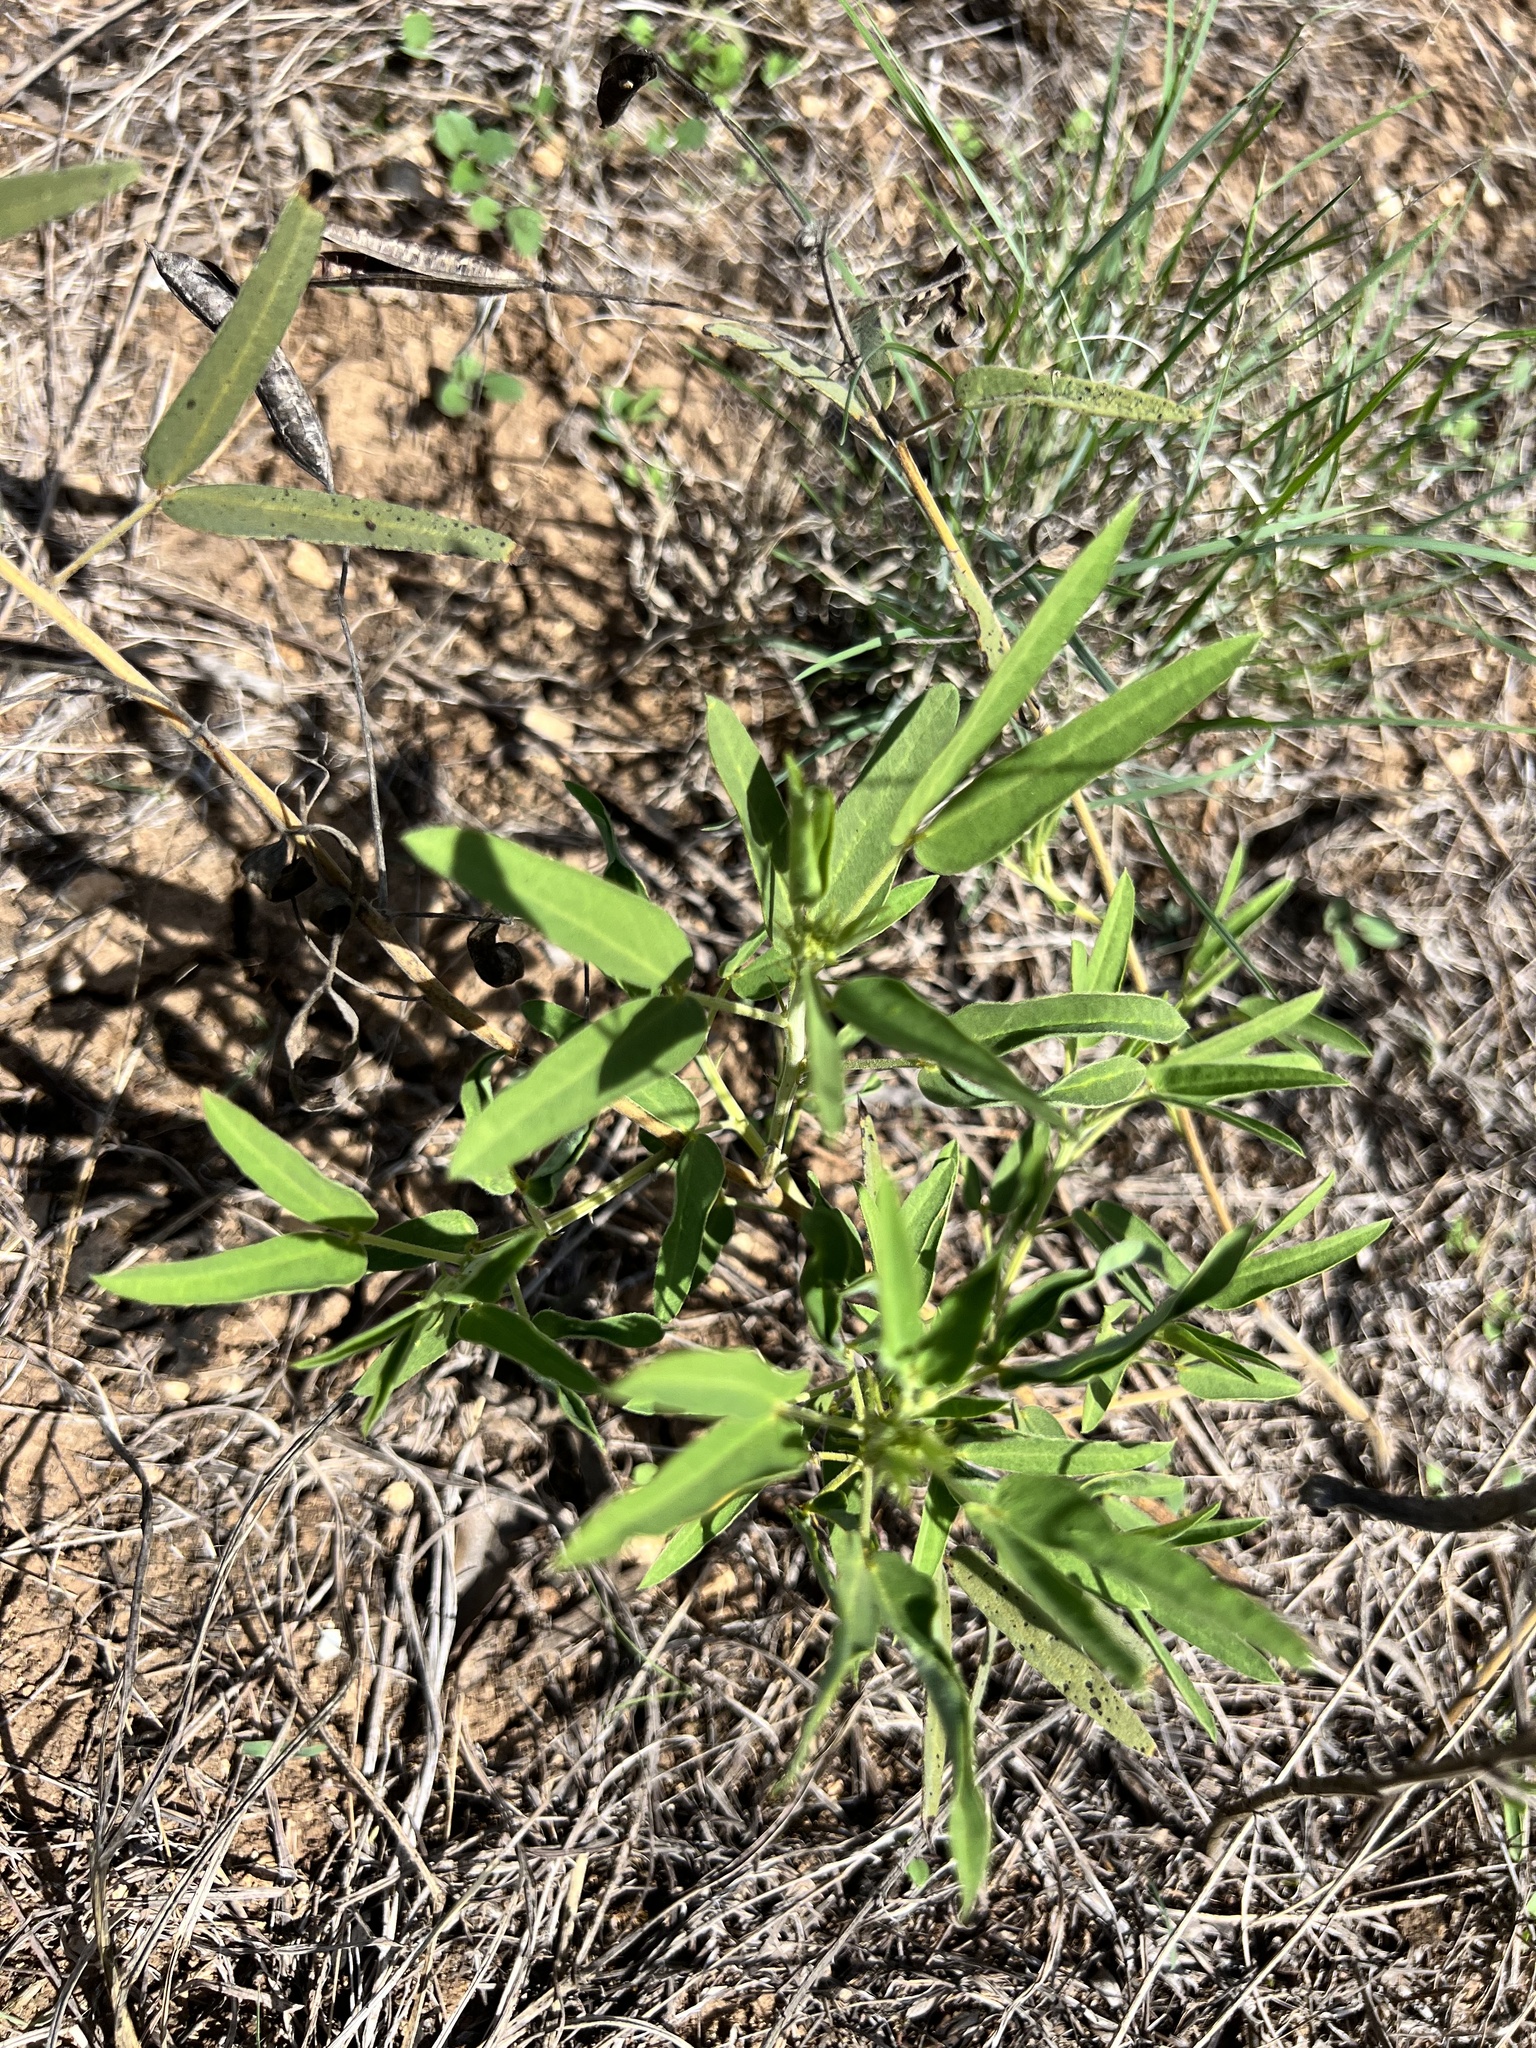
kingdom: Plantae
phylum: Tracheophyta
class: Magnoliopsida
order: Fabales
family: Fabaceae
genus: Senna
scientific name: Senna roemeriana
